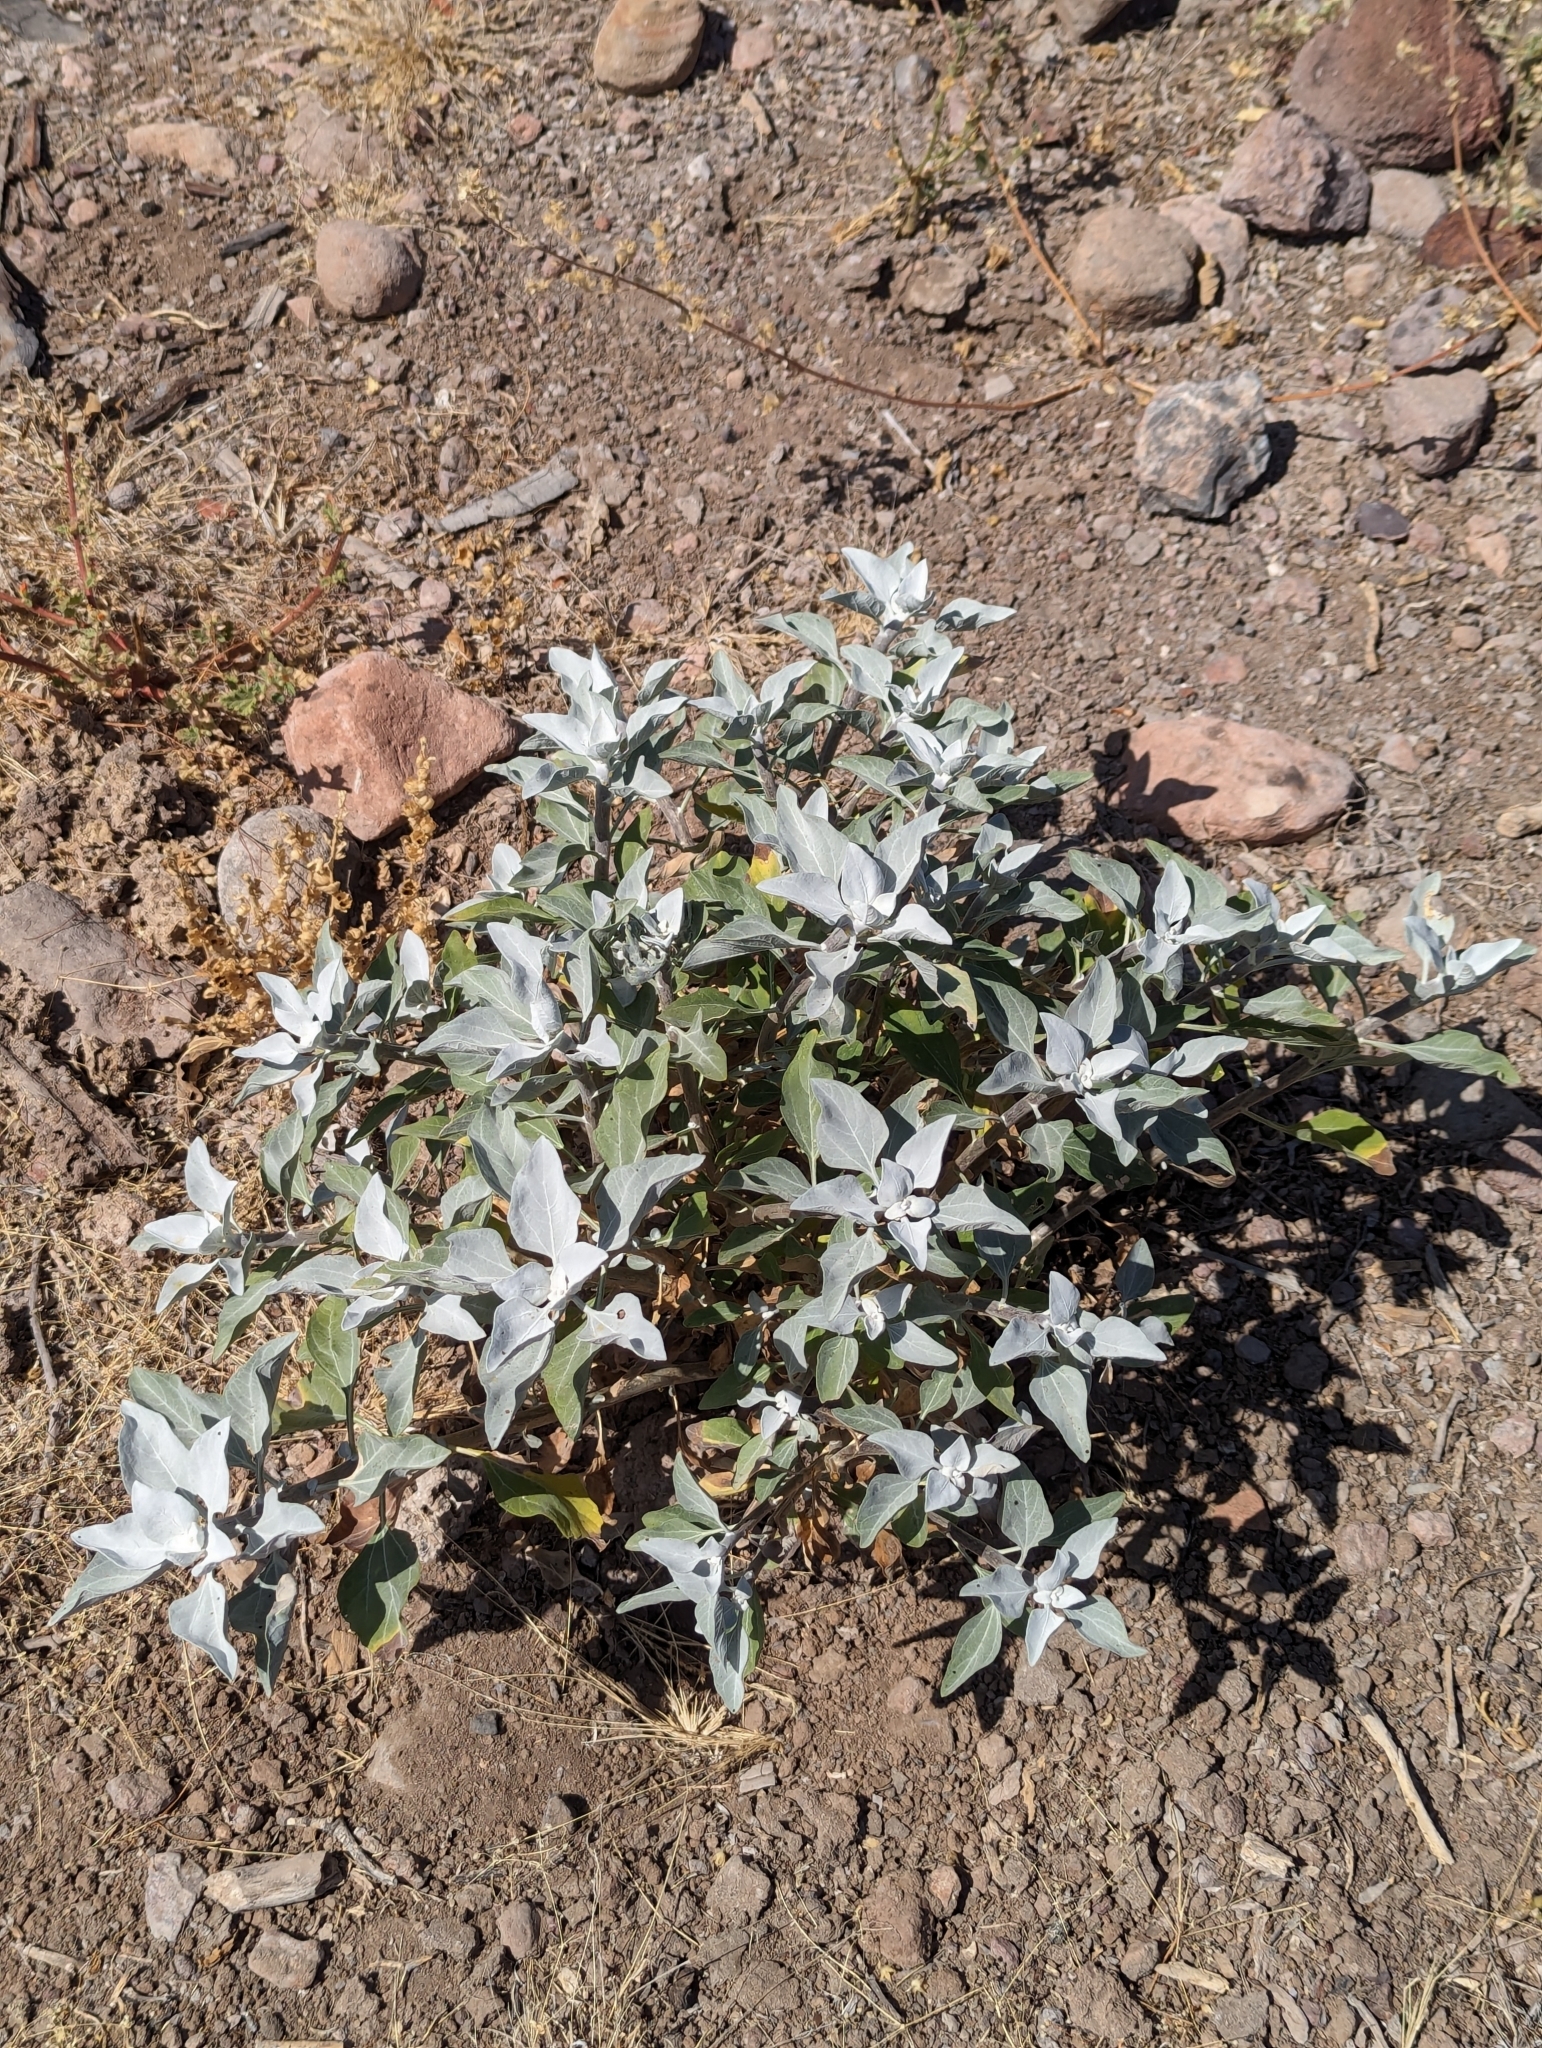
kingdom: Plantae
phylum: Tracheophyta
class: Magnoliopsida
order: Asterales
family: Asteraceae
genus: Encelia
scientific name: Encelia farinosa
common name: Brittlebush
